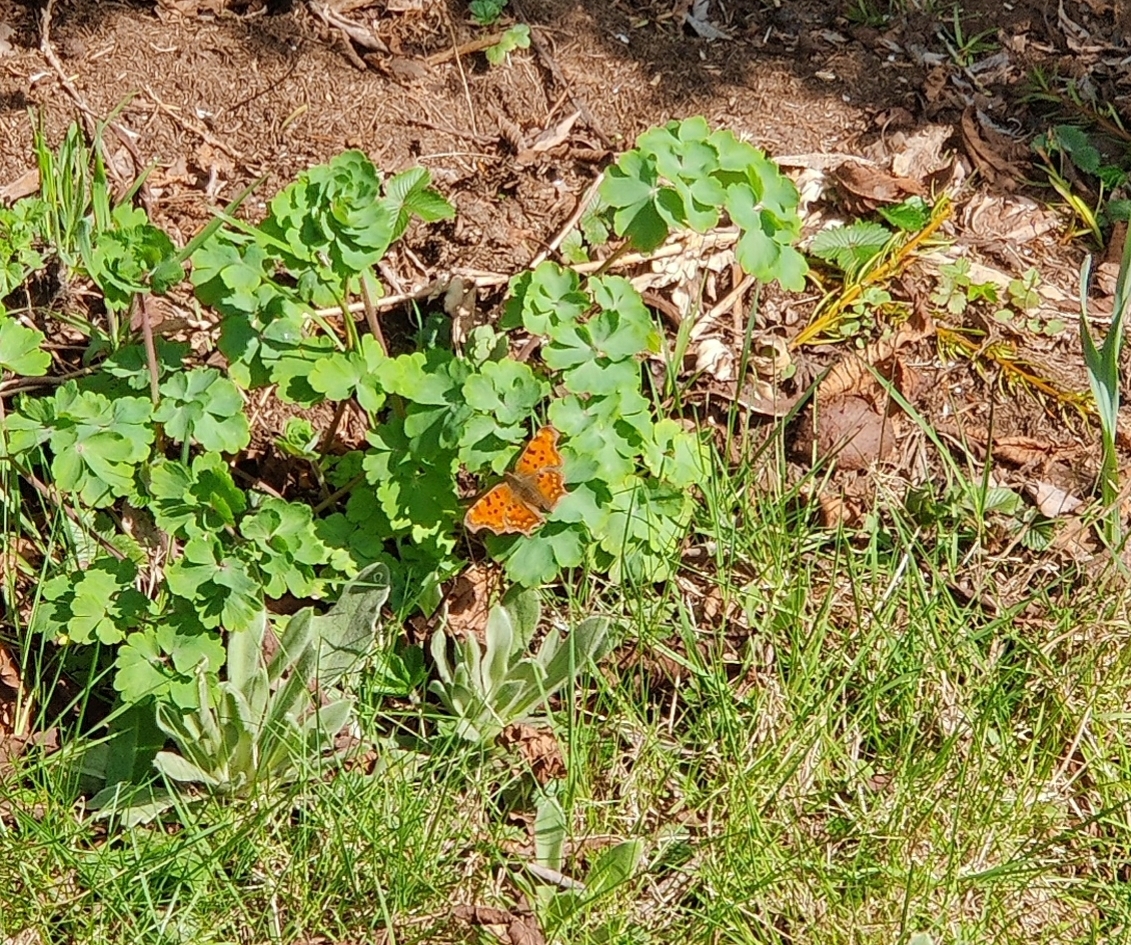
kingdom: Animalia
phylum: Arthropoda
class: Insecta
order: Lepidoptera
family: Nymphalidae
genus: Polygonia
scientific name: Polygonia c-album
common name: Comma
